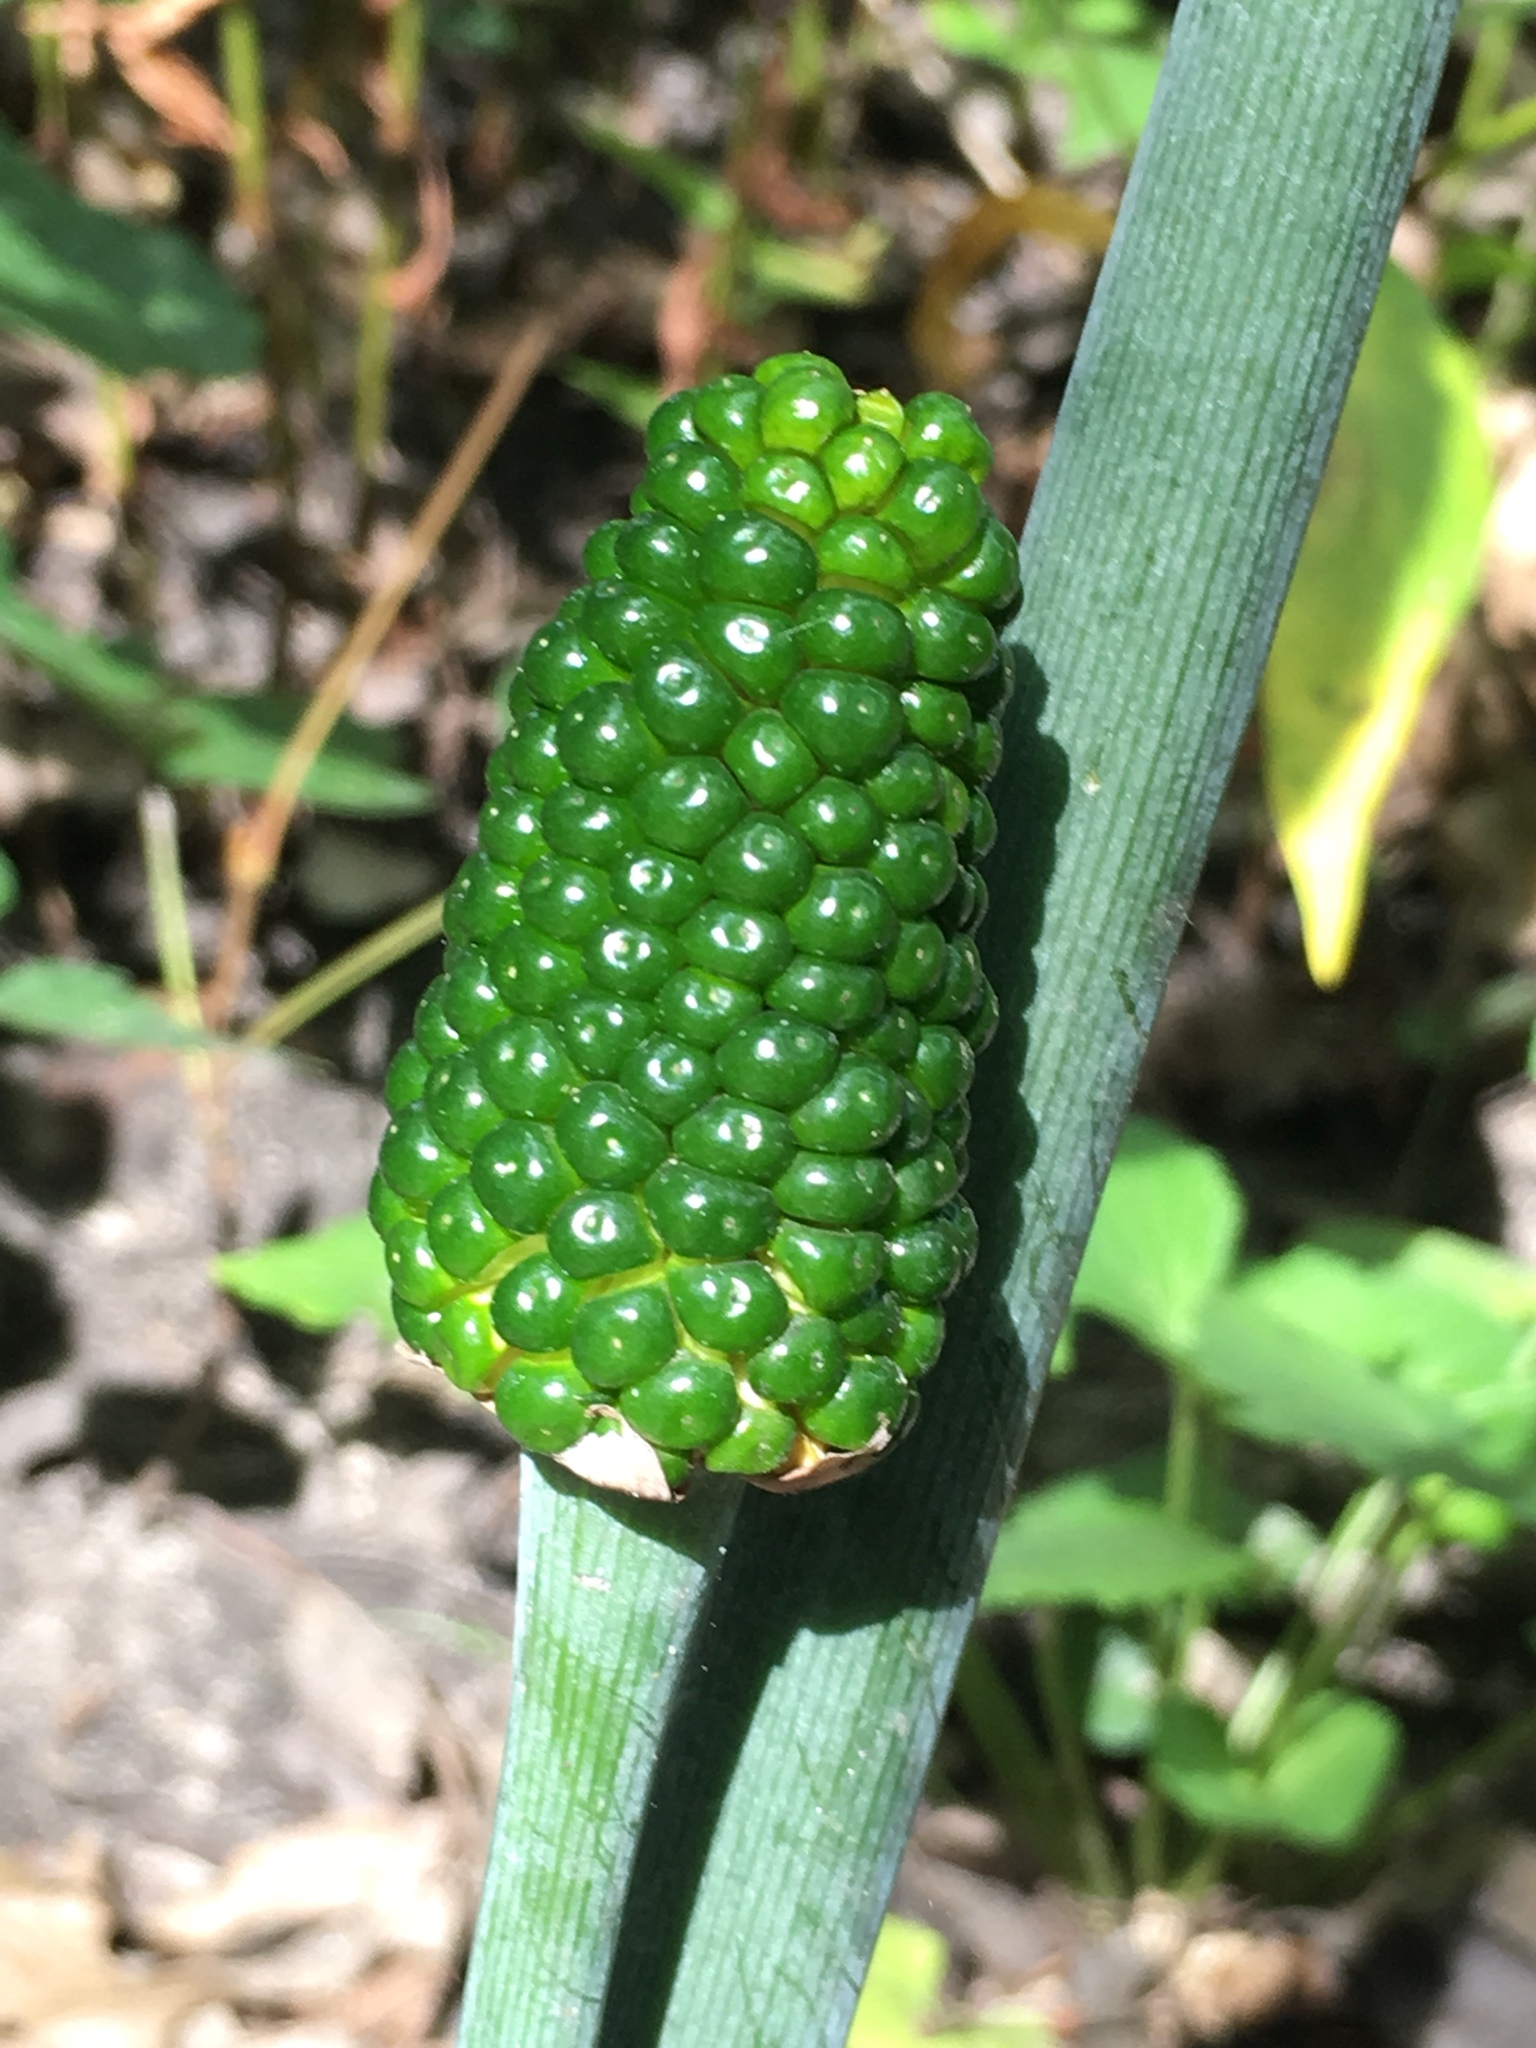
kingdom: Plantae
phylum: Tracheophyta
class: Liliopsida
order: Alismatales
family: Araceae
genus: Arisaema
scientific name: Arisaema dracontium
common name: Dragon-arum
